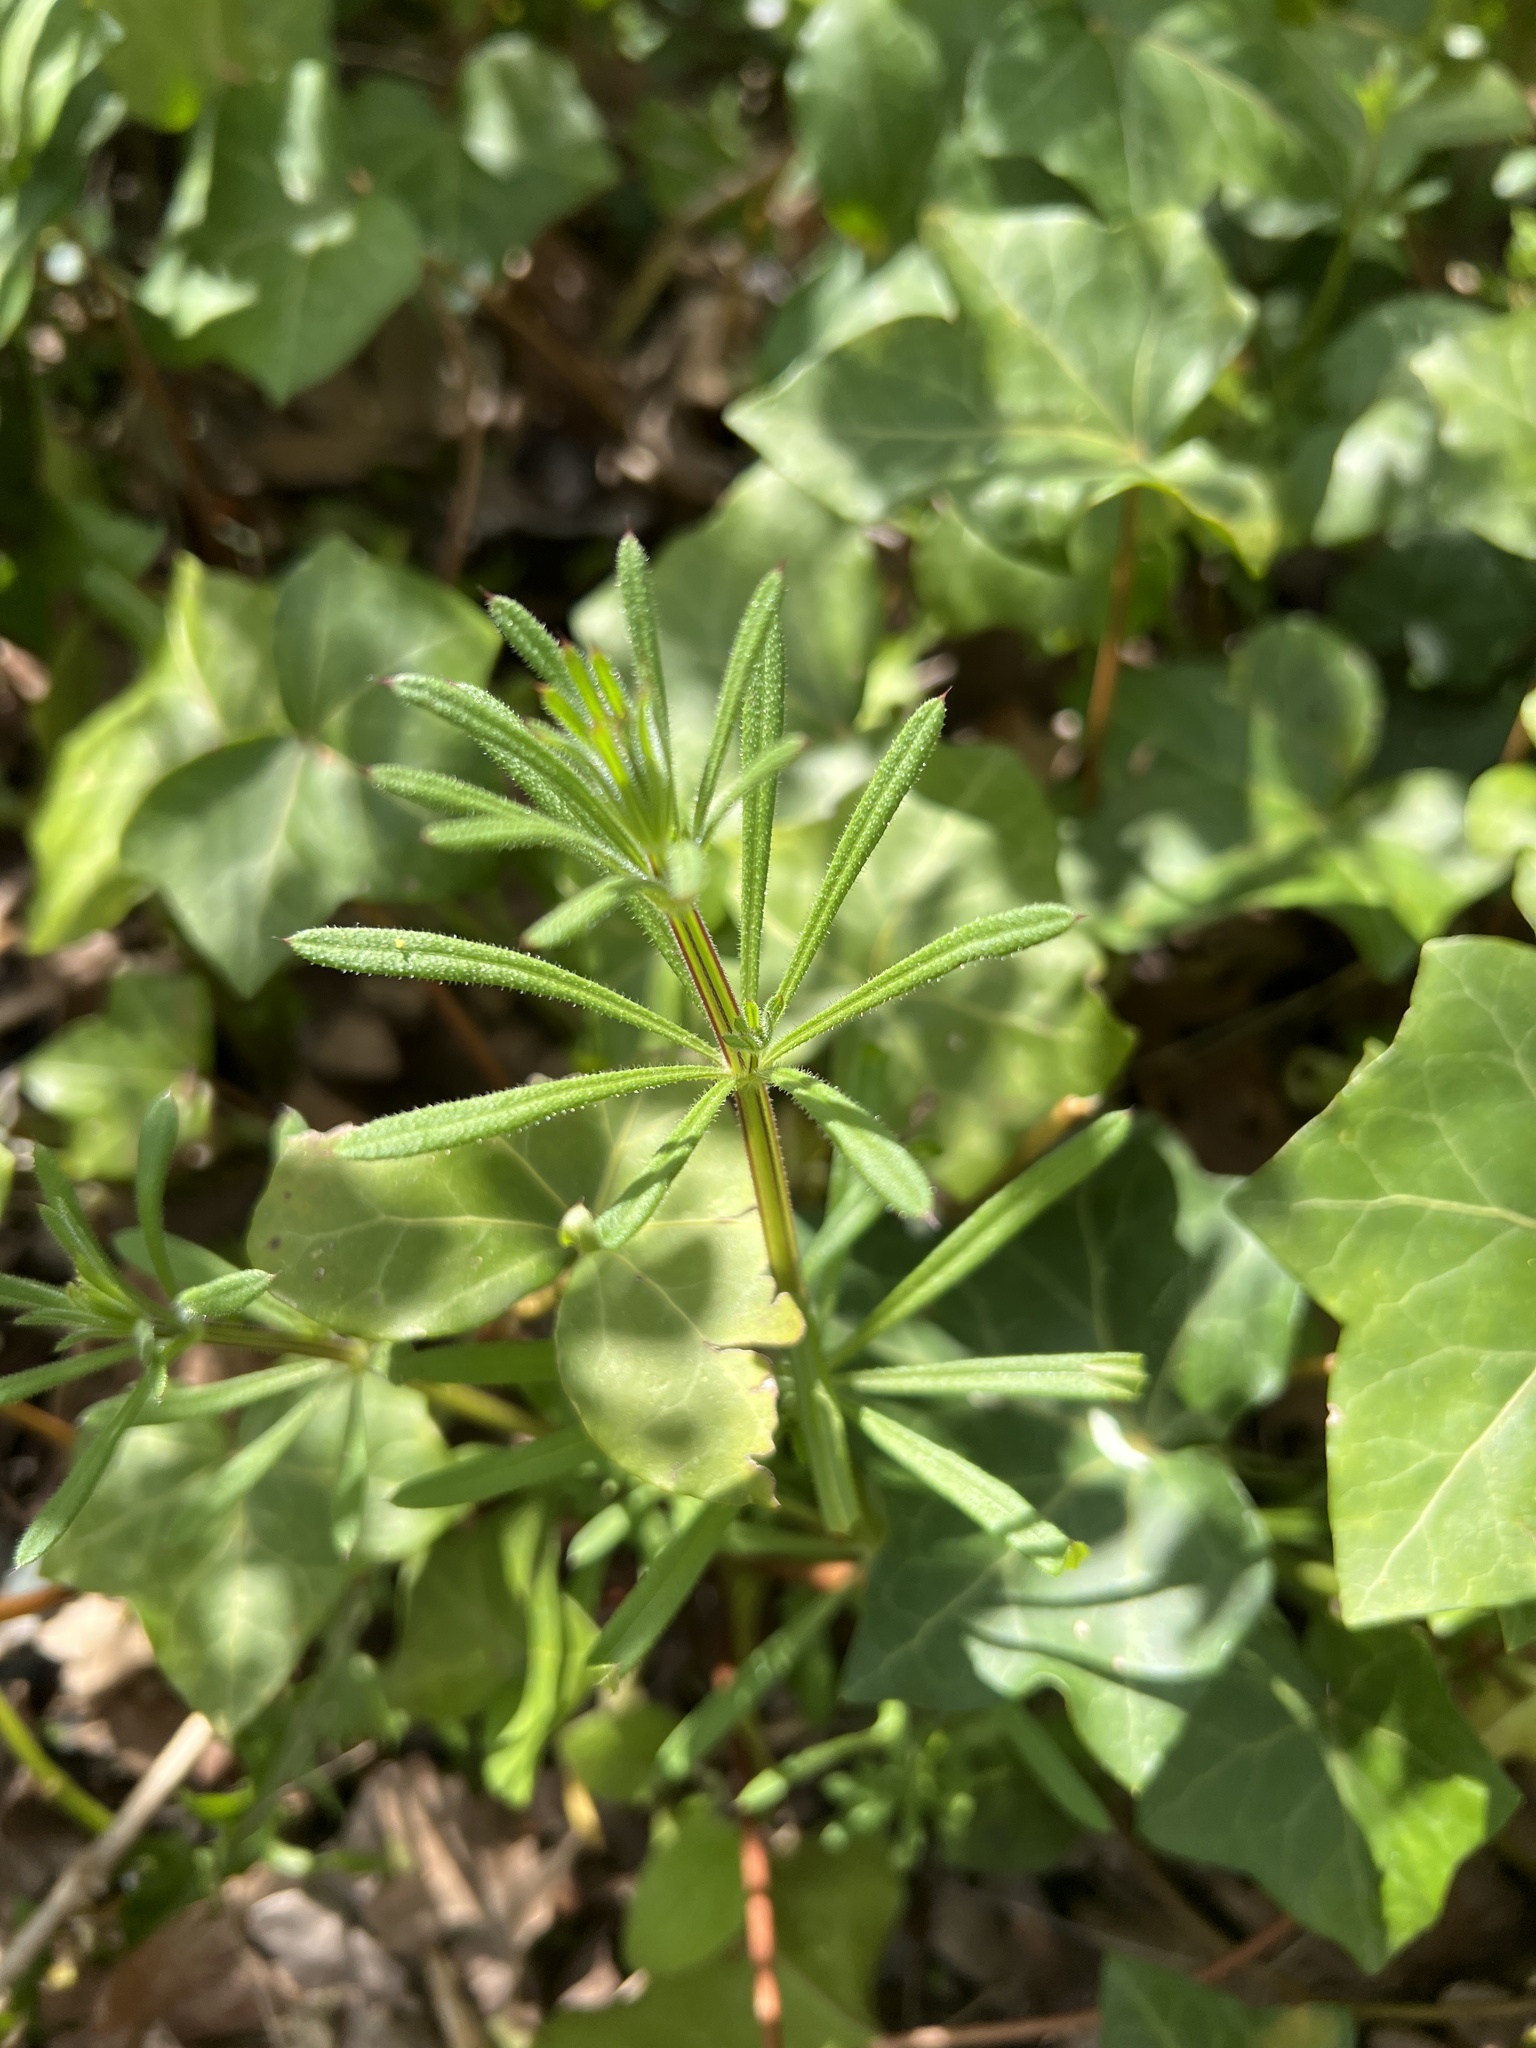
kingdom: Plantae
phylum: Tracheophyta
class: Magnoliopsida
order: Gentianales
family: Rubiaceae
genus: Galium
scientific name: Galium aparine
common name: Cleavers
